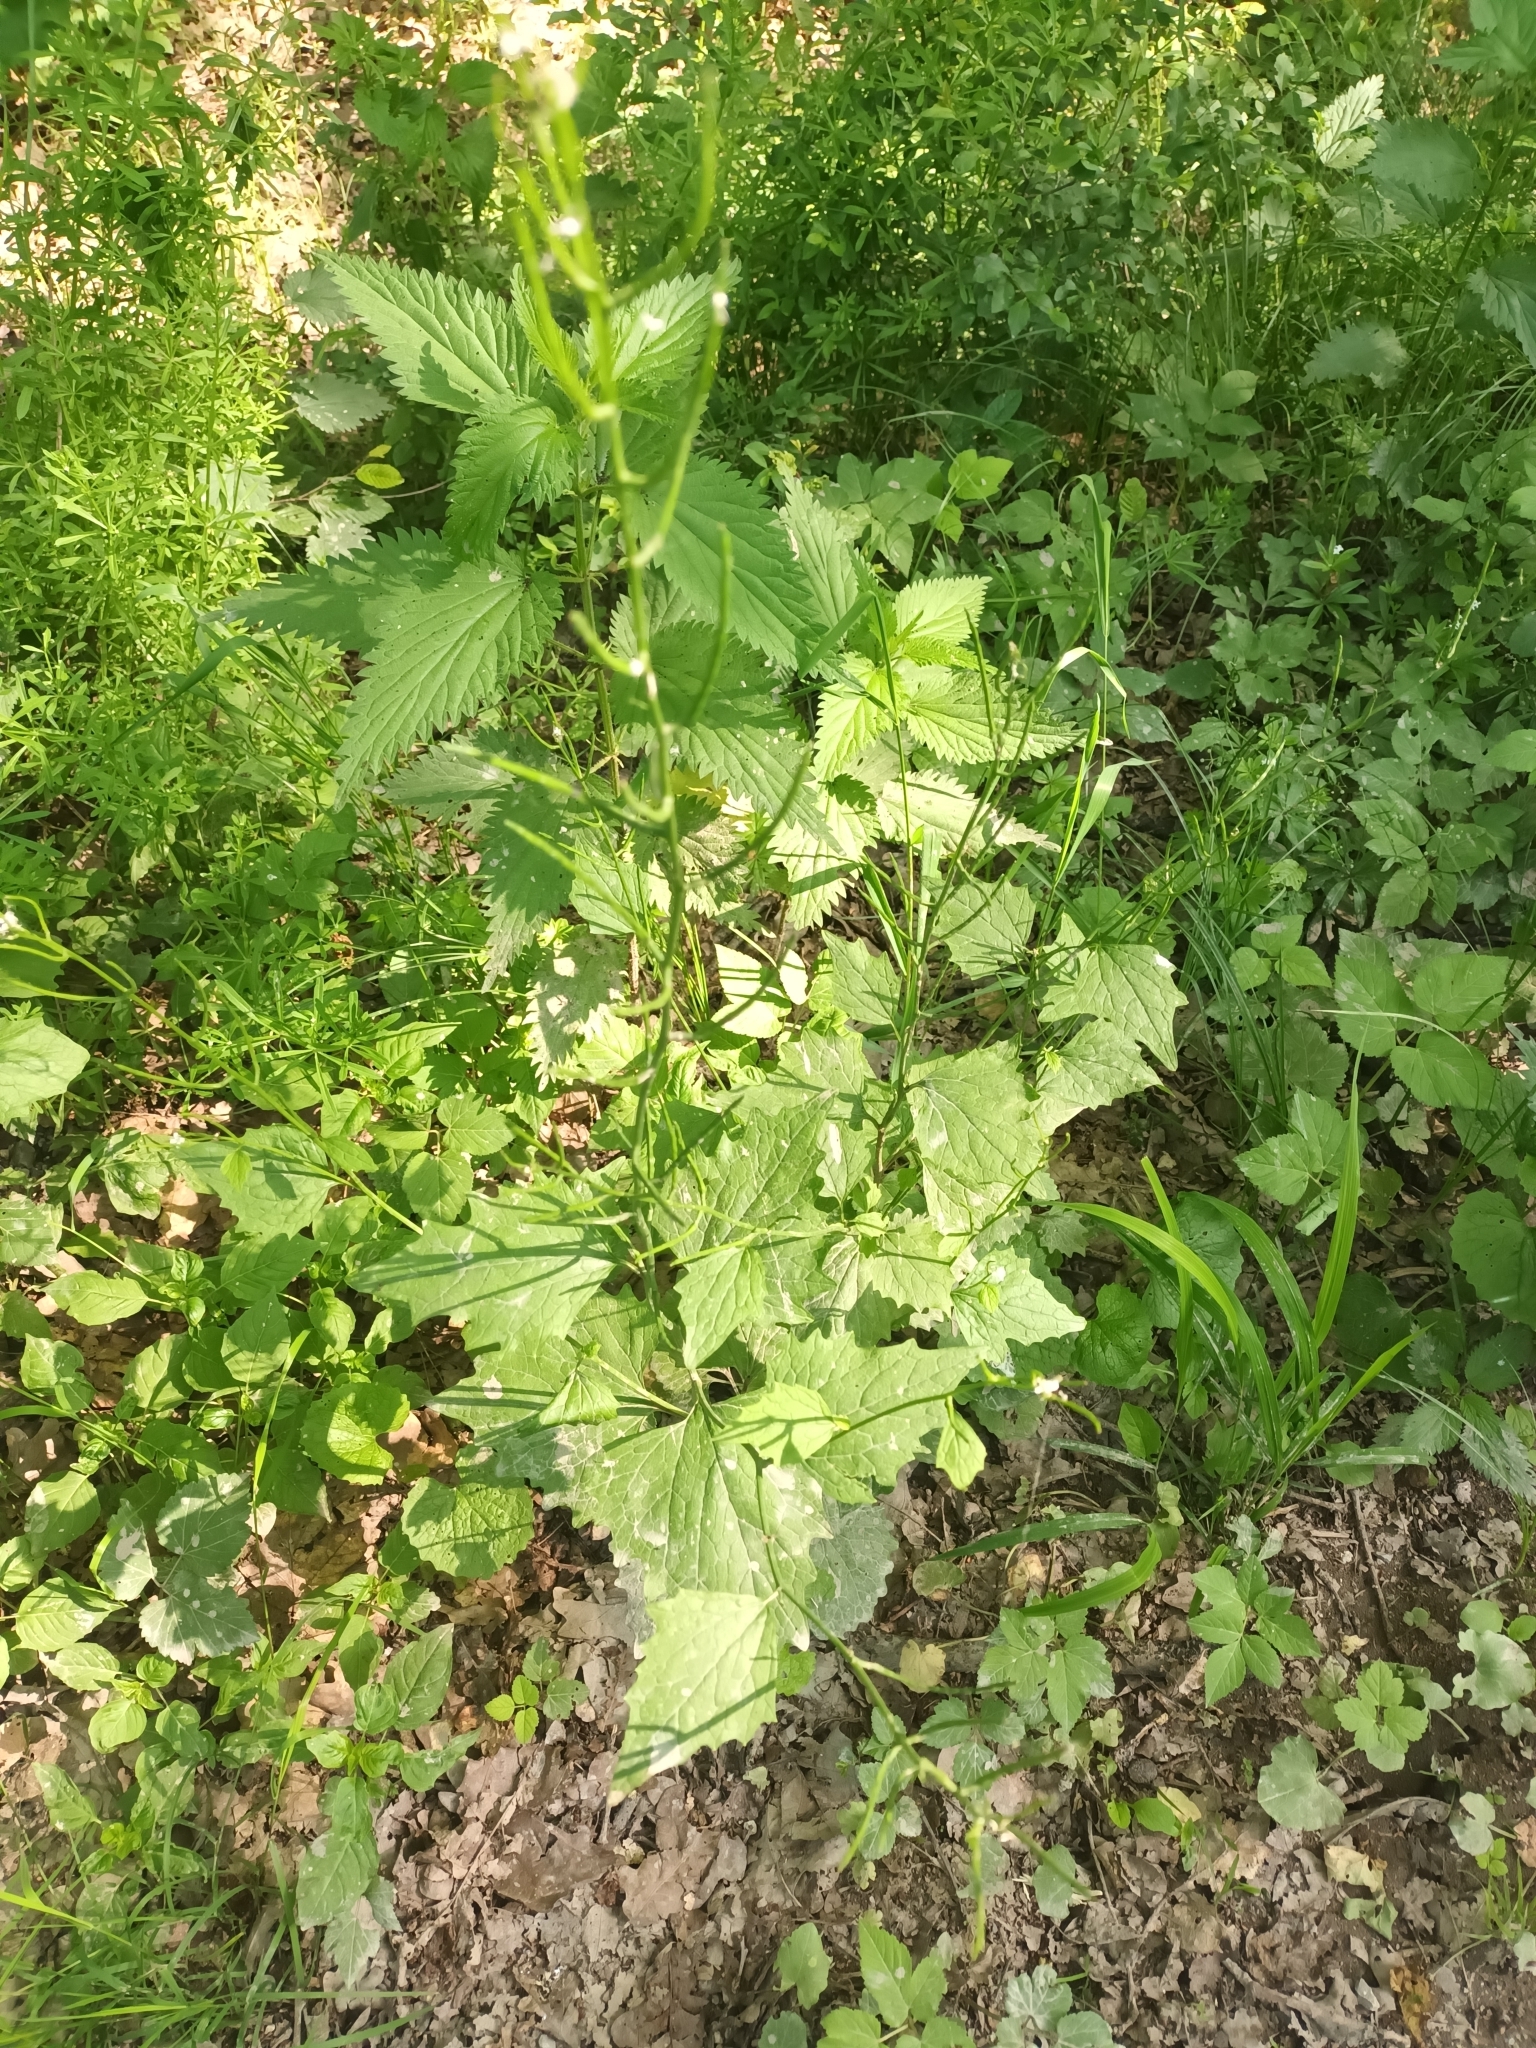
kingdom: Plantae
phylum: Tracheophyta
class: Magnoliopsida
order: Brassicales
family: Brassicaceae
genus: Alliaria
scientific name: Alliaria petiolata
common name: Garlic mustard
